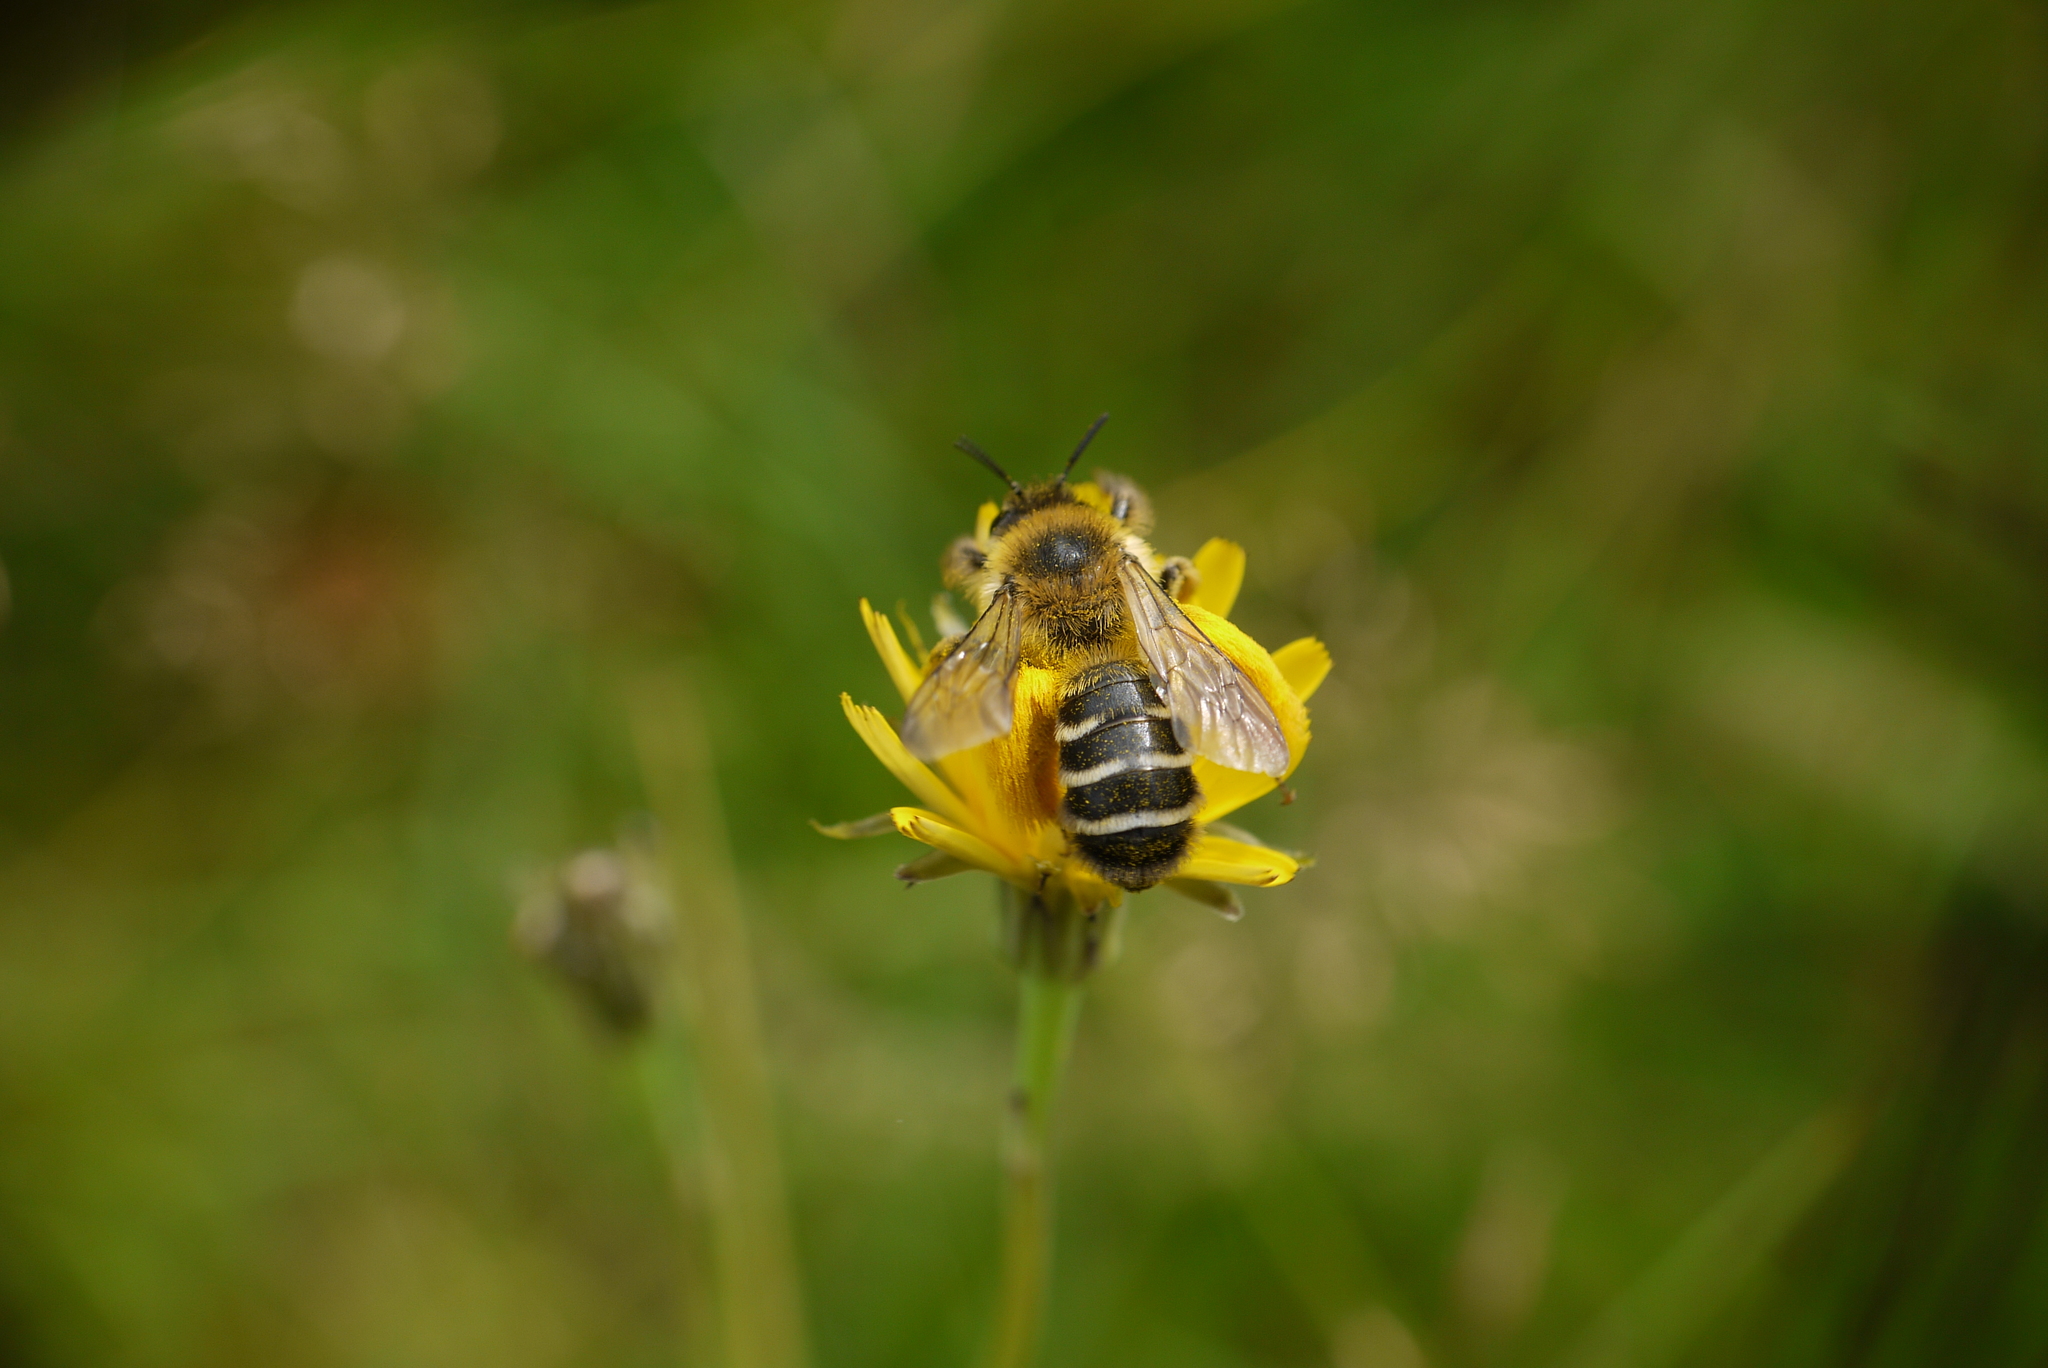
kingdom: Animalia
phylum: Arthropoda
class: Insecta
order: Hymenoptera
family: Melittidae
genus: Dasypoda
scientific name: Dasypoda hirtipes
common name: Pantaloon bee
